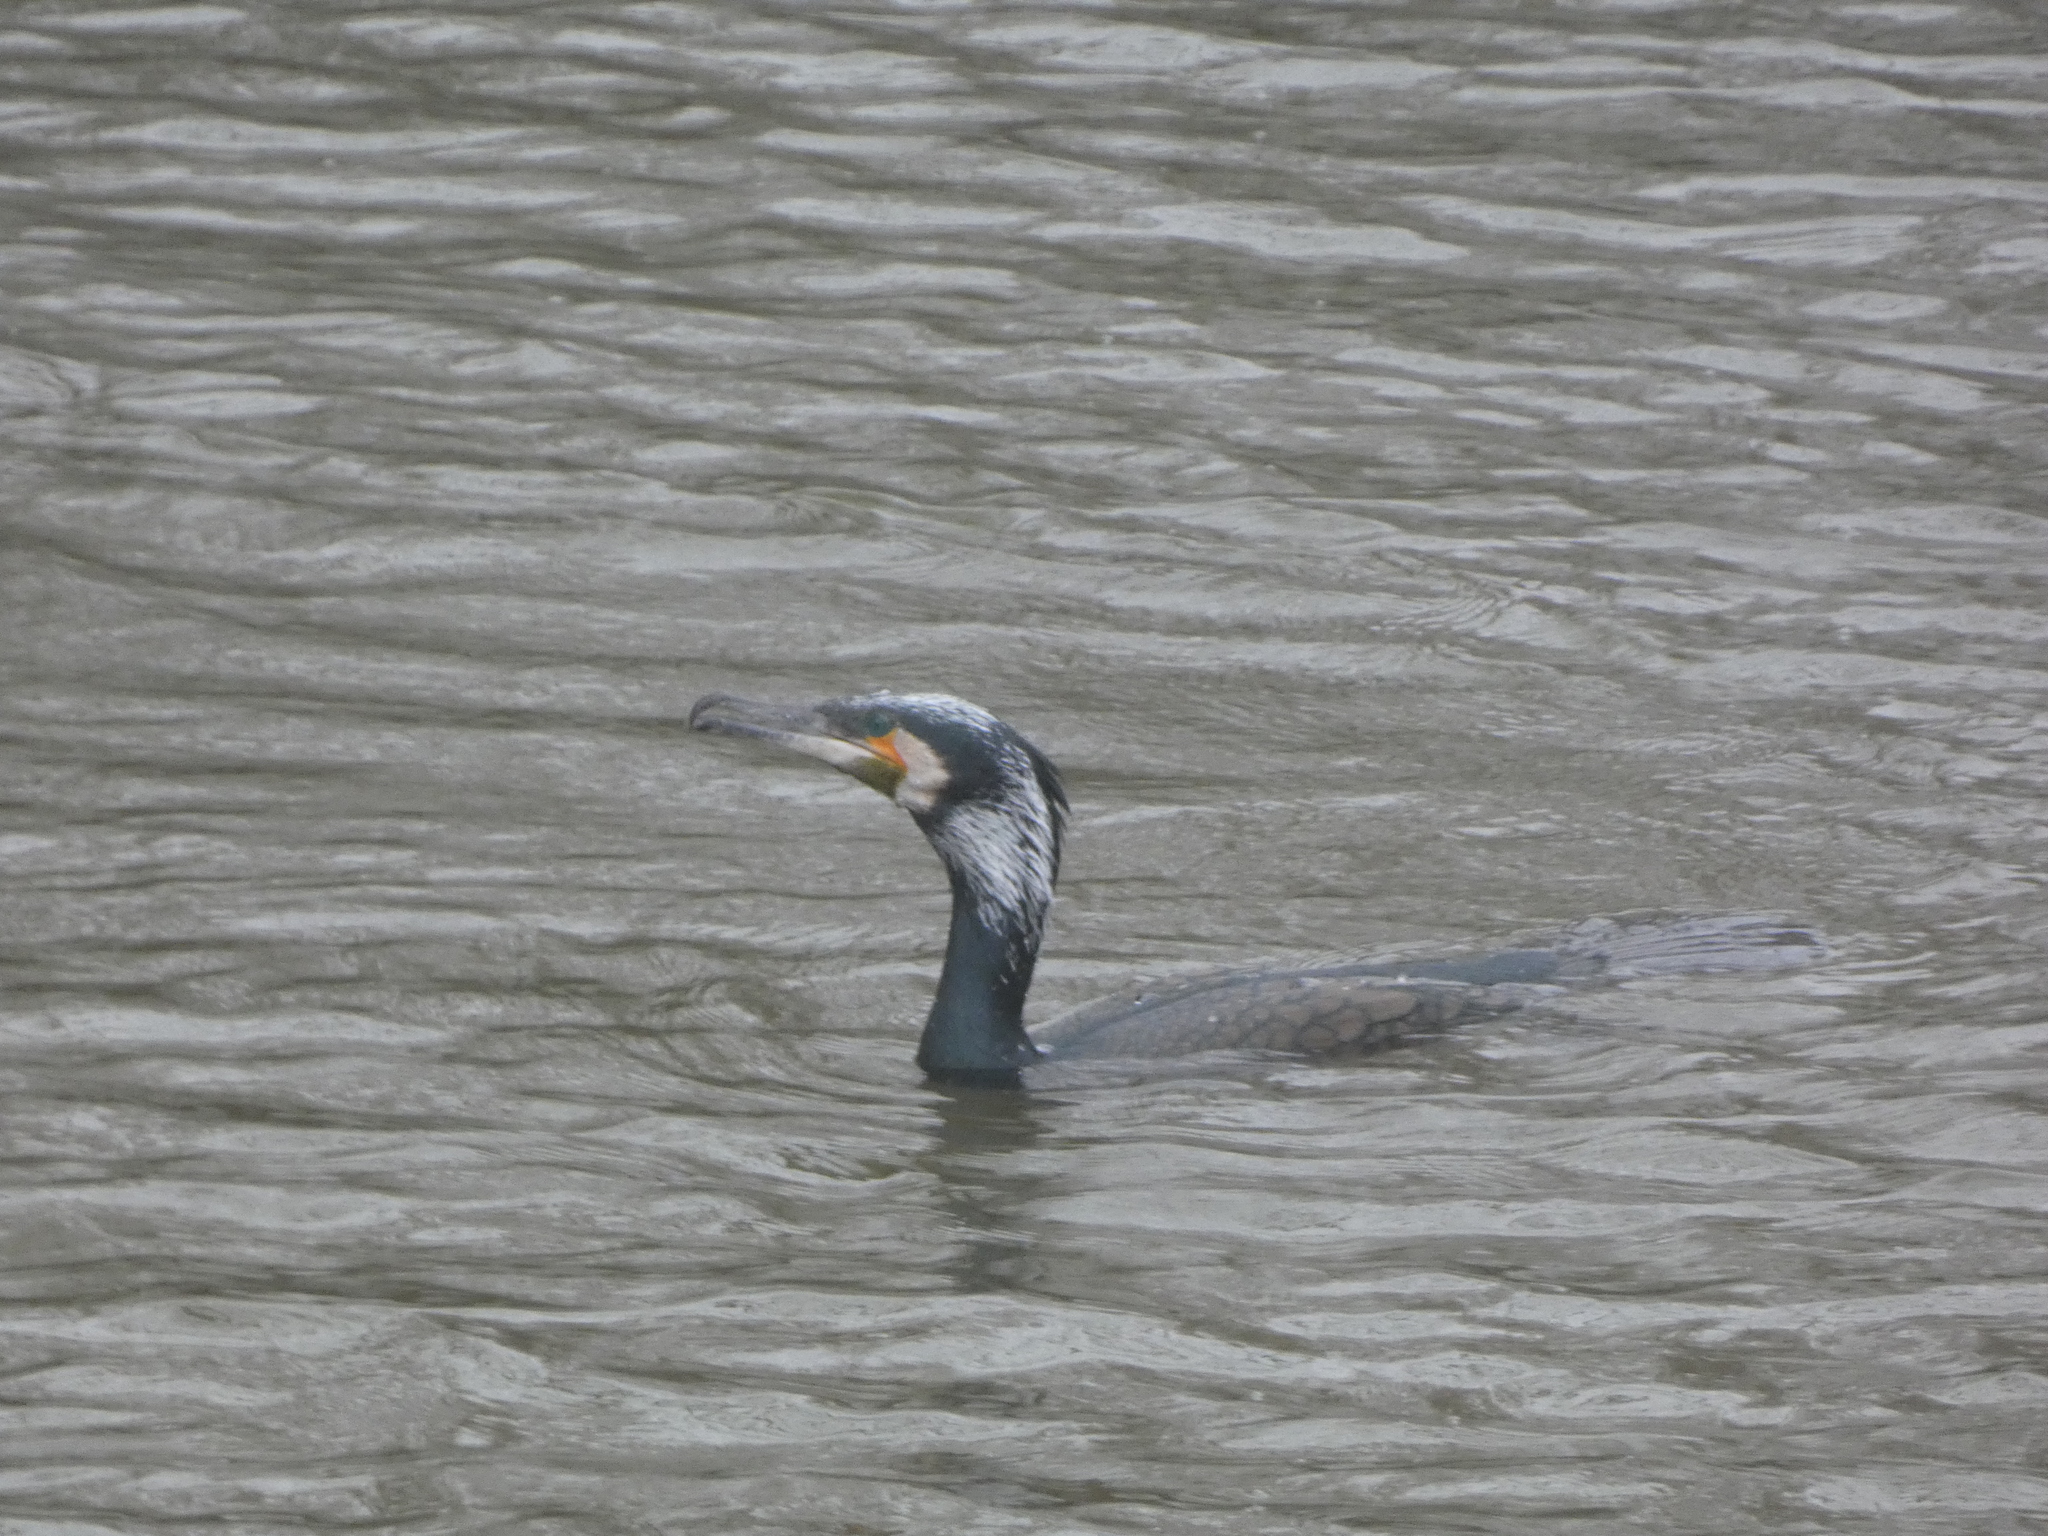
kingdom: Animalia
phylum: Chordata
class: Aves
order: Suliformes
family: Phalacrocoracidae
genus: Phalacrocorax
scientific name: Phalacrocorax carbo
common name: Great cormorant
